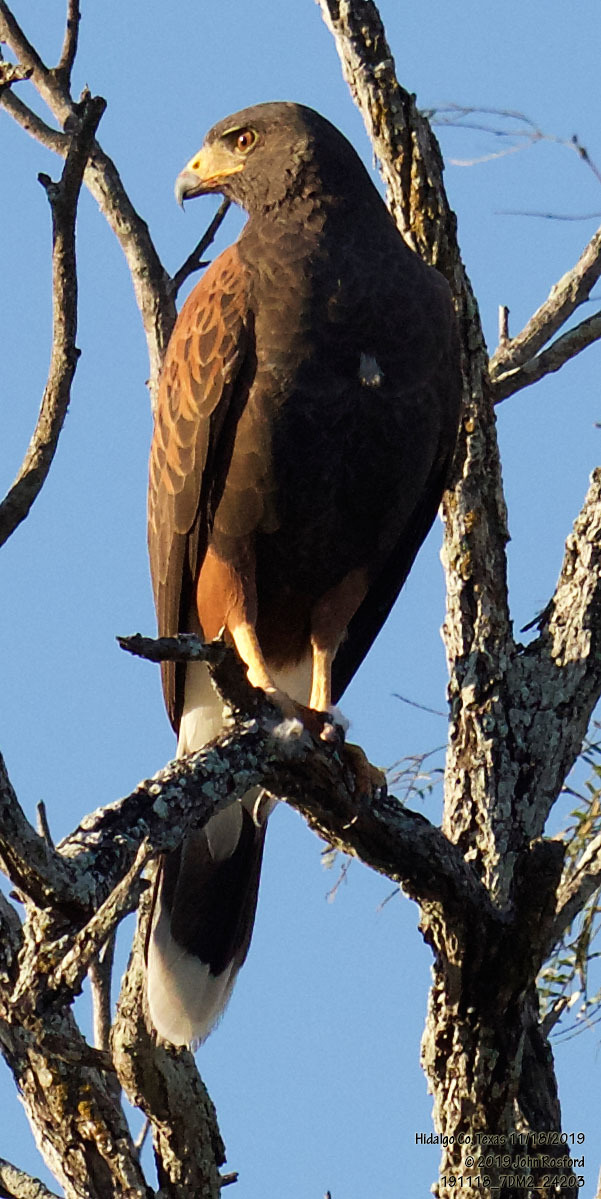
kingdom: Animalia
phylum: Chordata
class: Aves
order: Accipitriformes
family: Accipitridae
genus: Parabuteo
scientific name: Parabuteo unicinctus
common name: Harris's hawk
